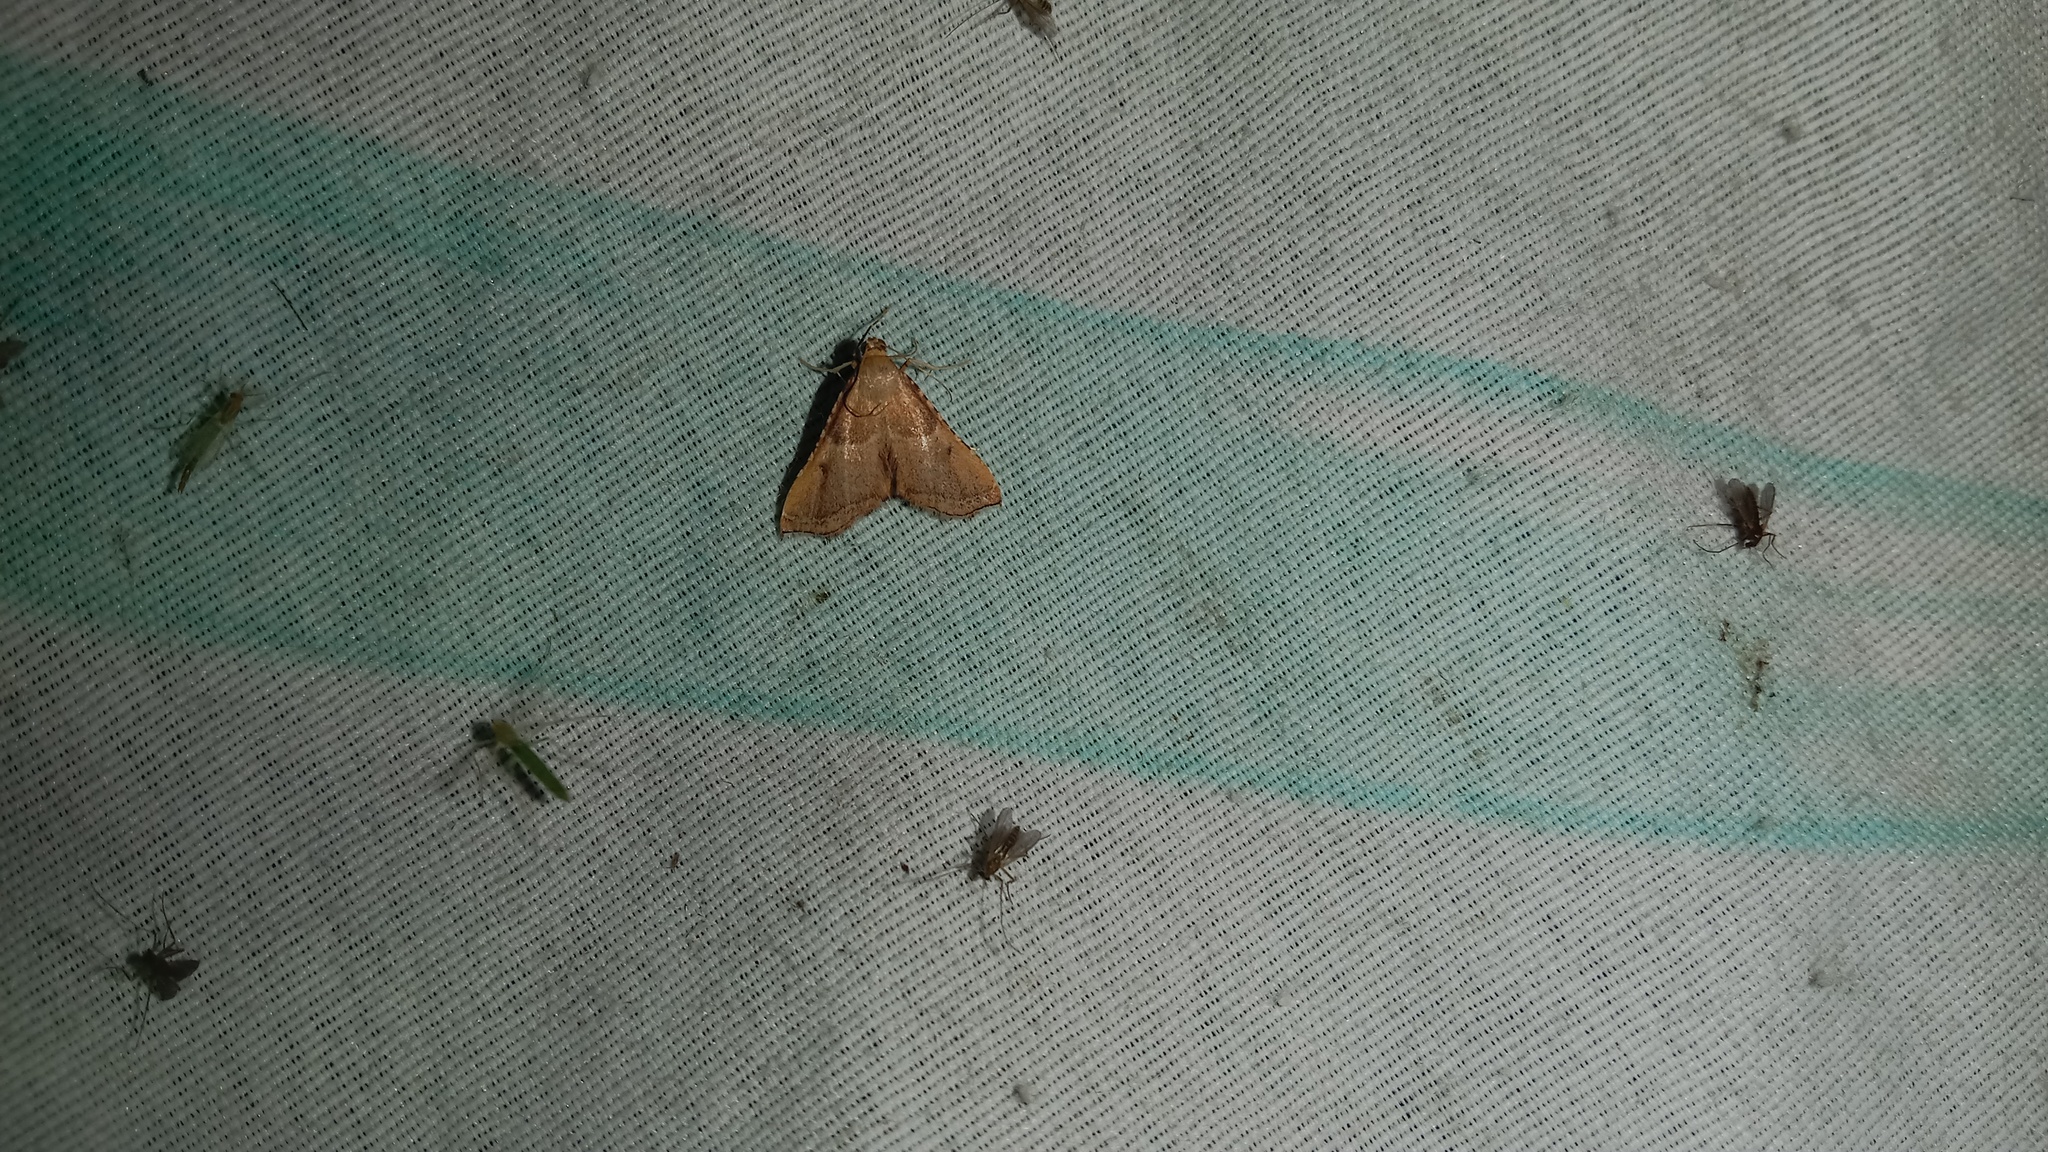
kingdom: Animalia
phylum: Arthropoda
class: Insecta
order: Lepidoptera
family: Pyralidae
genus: Endotricha
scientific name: Endotricha flammealis
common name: Rosy tabby
